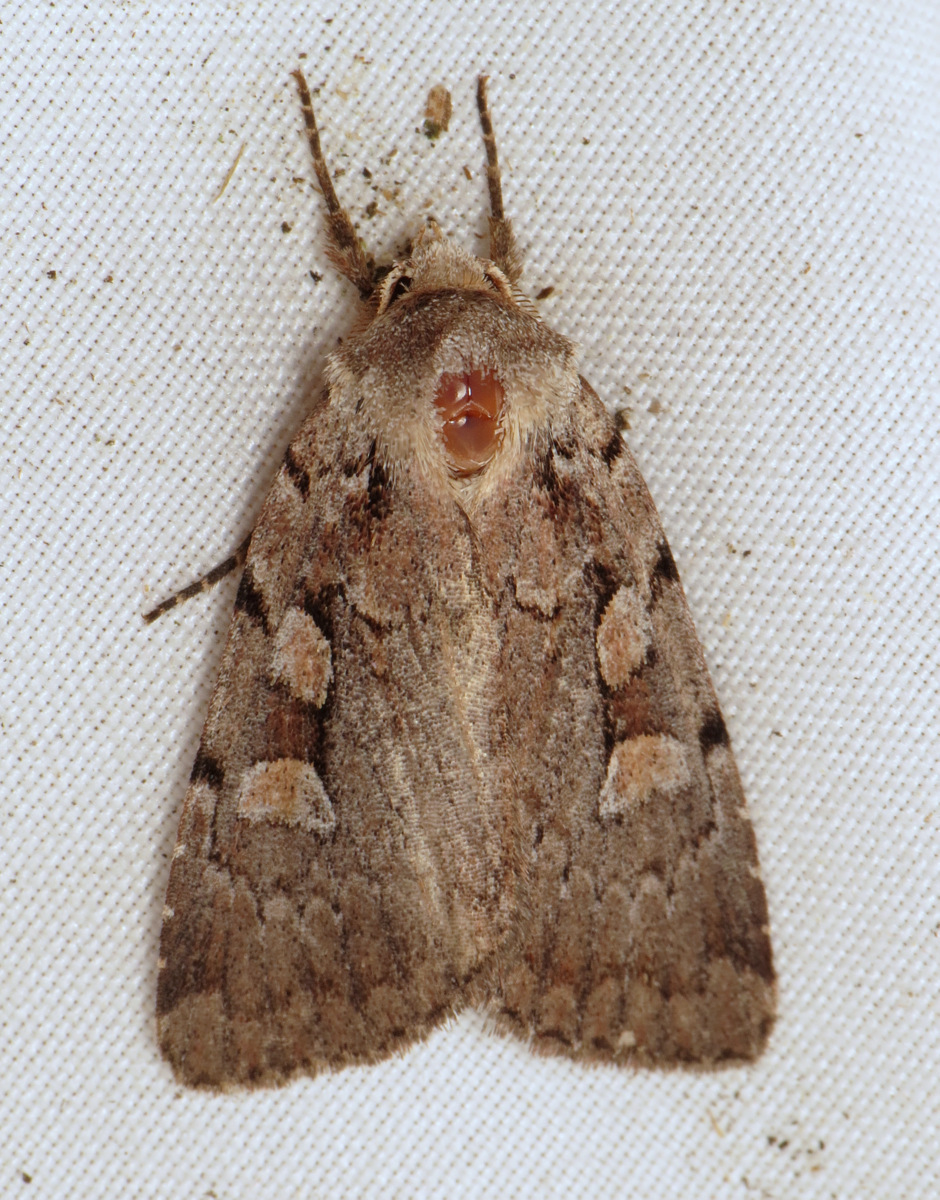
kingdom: Animalia
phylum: Arthropoda
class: Insecta
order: Lepidoptera
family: Noctuidae
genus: Xestia
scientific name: Xestia badicollis
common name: Northern variable dart
